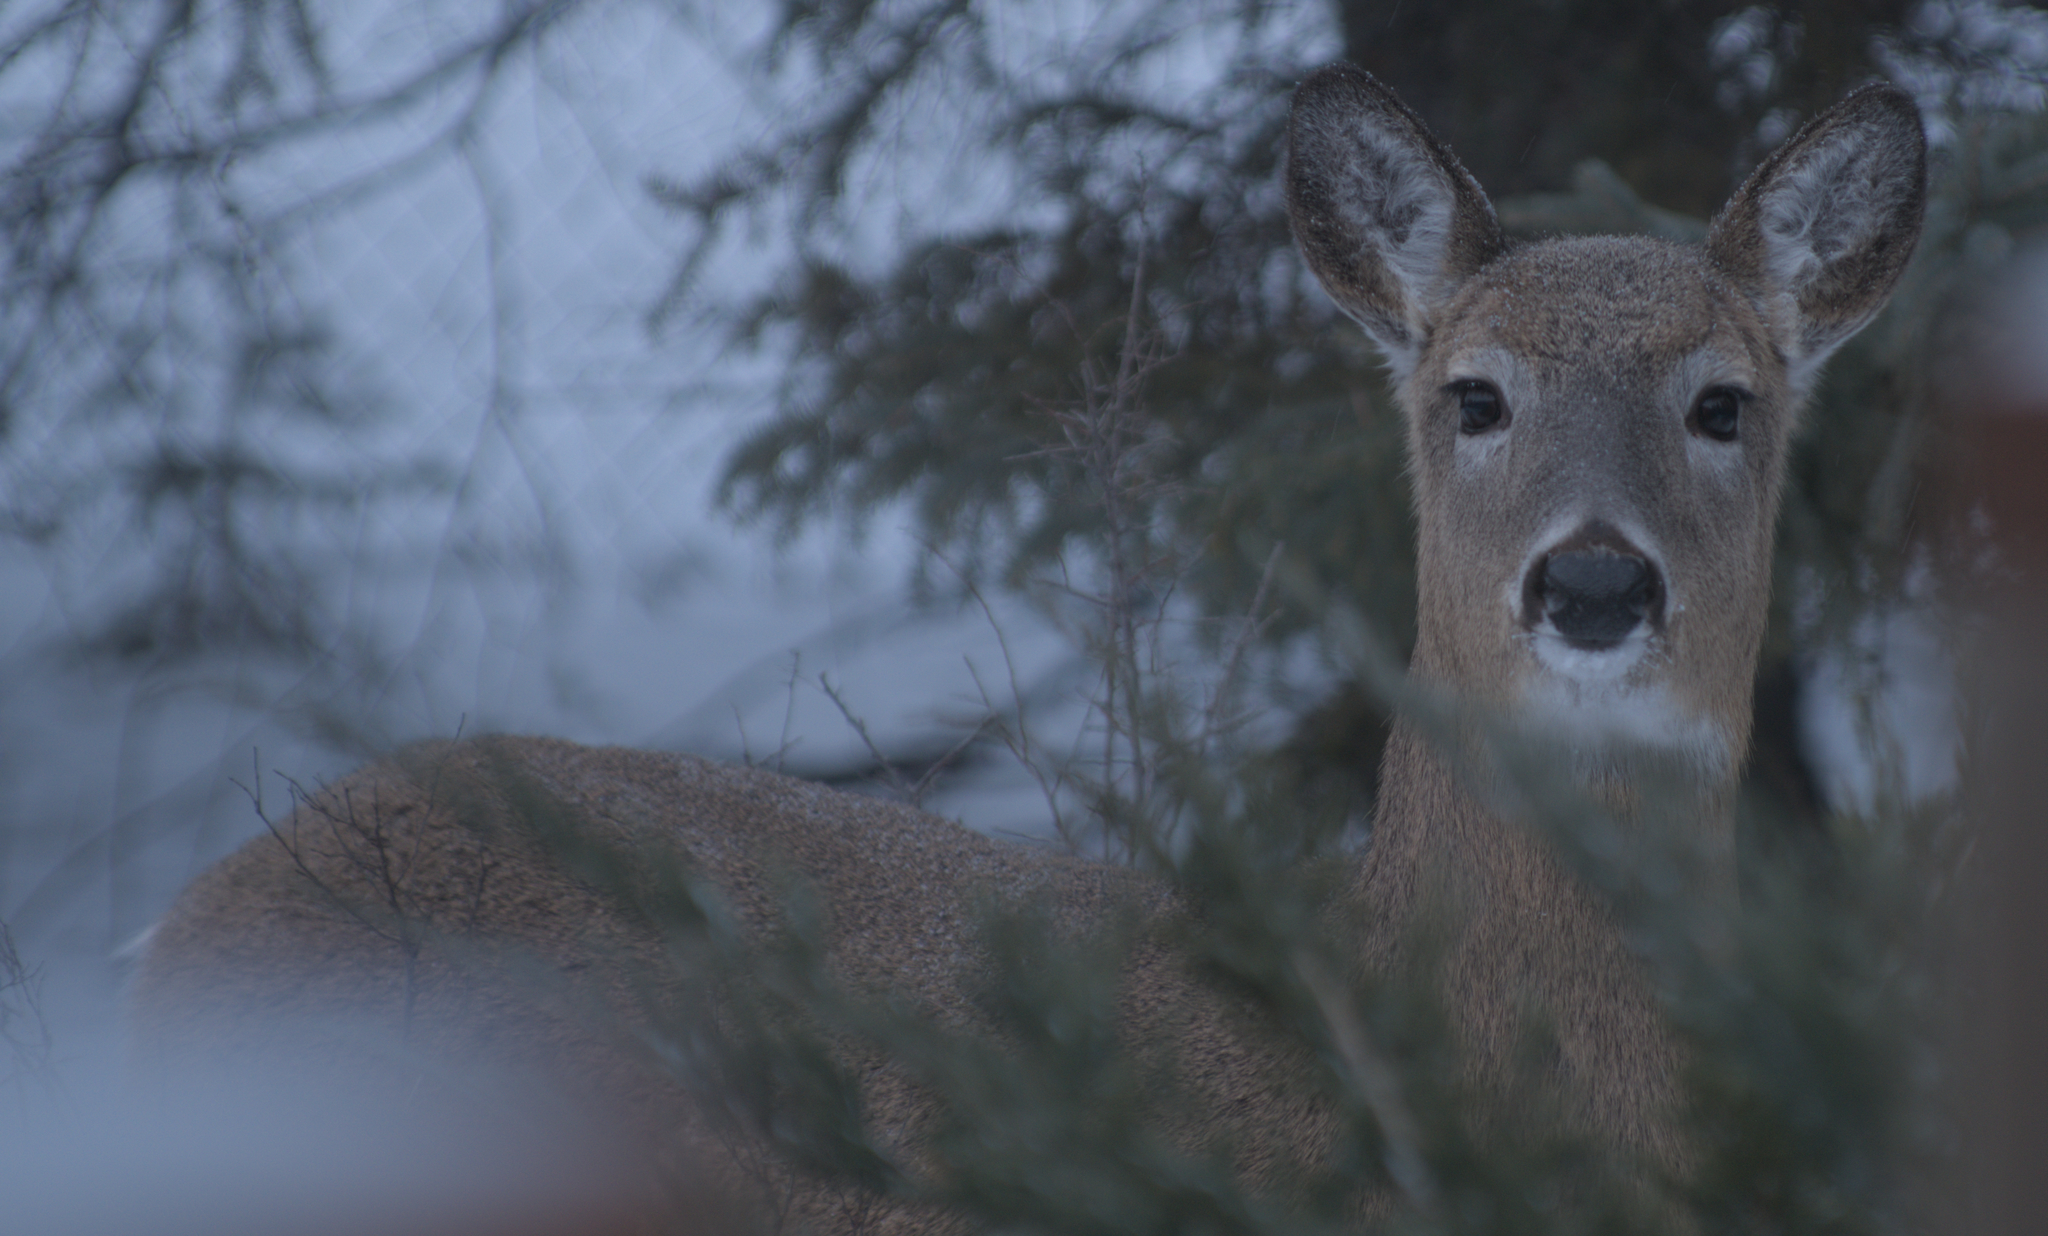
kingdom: Animalia
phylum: Chordata
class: Mammalia
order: Artiodactyla
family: Cervidae
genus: Odocoileus
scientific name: Odocoileus virginianus
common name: White-tailed deer
